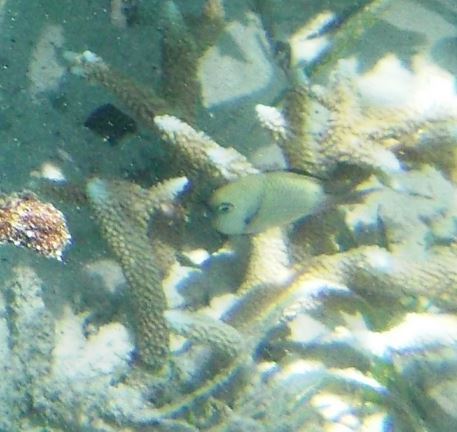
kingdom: Animalia
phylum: Chordata
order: Perciformes
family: Pomacentridae
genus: Dascyllus
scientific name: Dascyllus reticulatus
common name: Reticulated dascyllus
